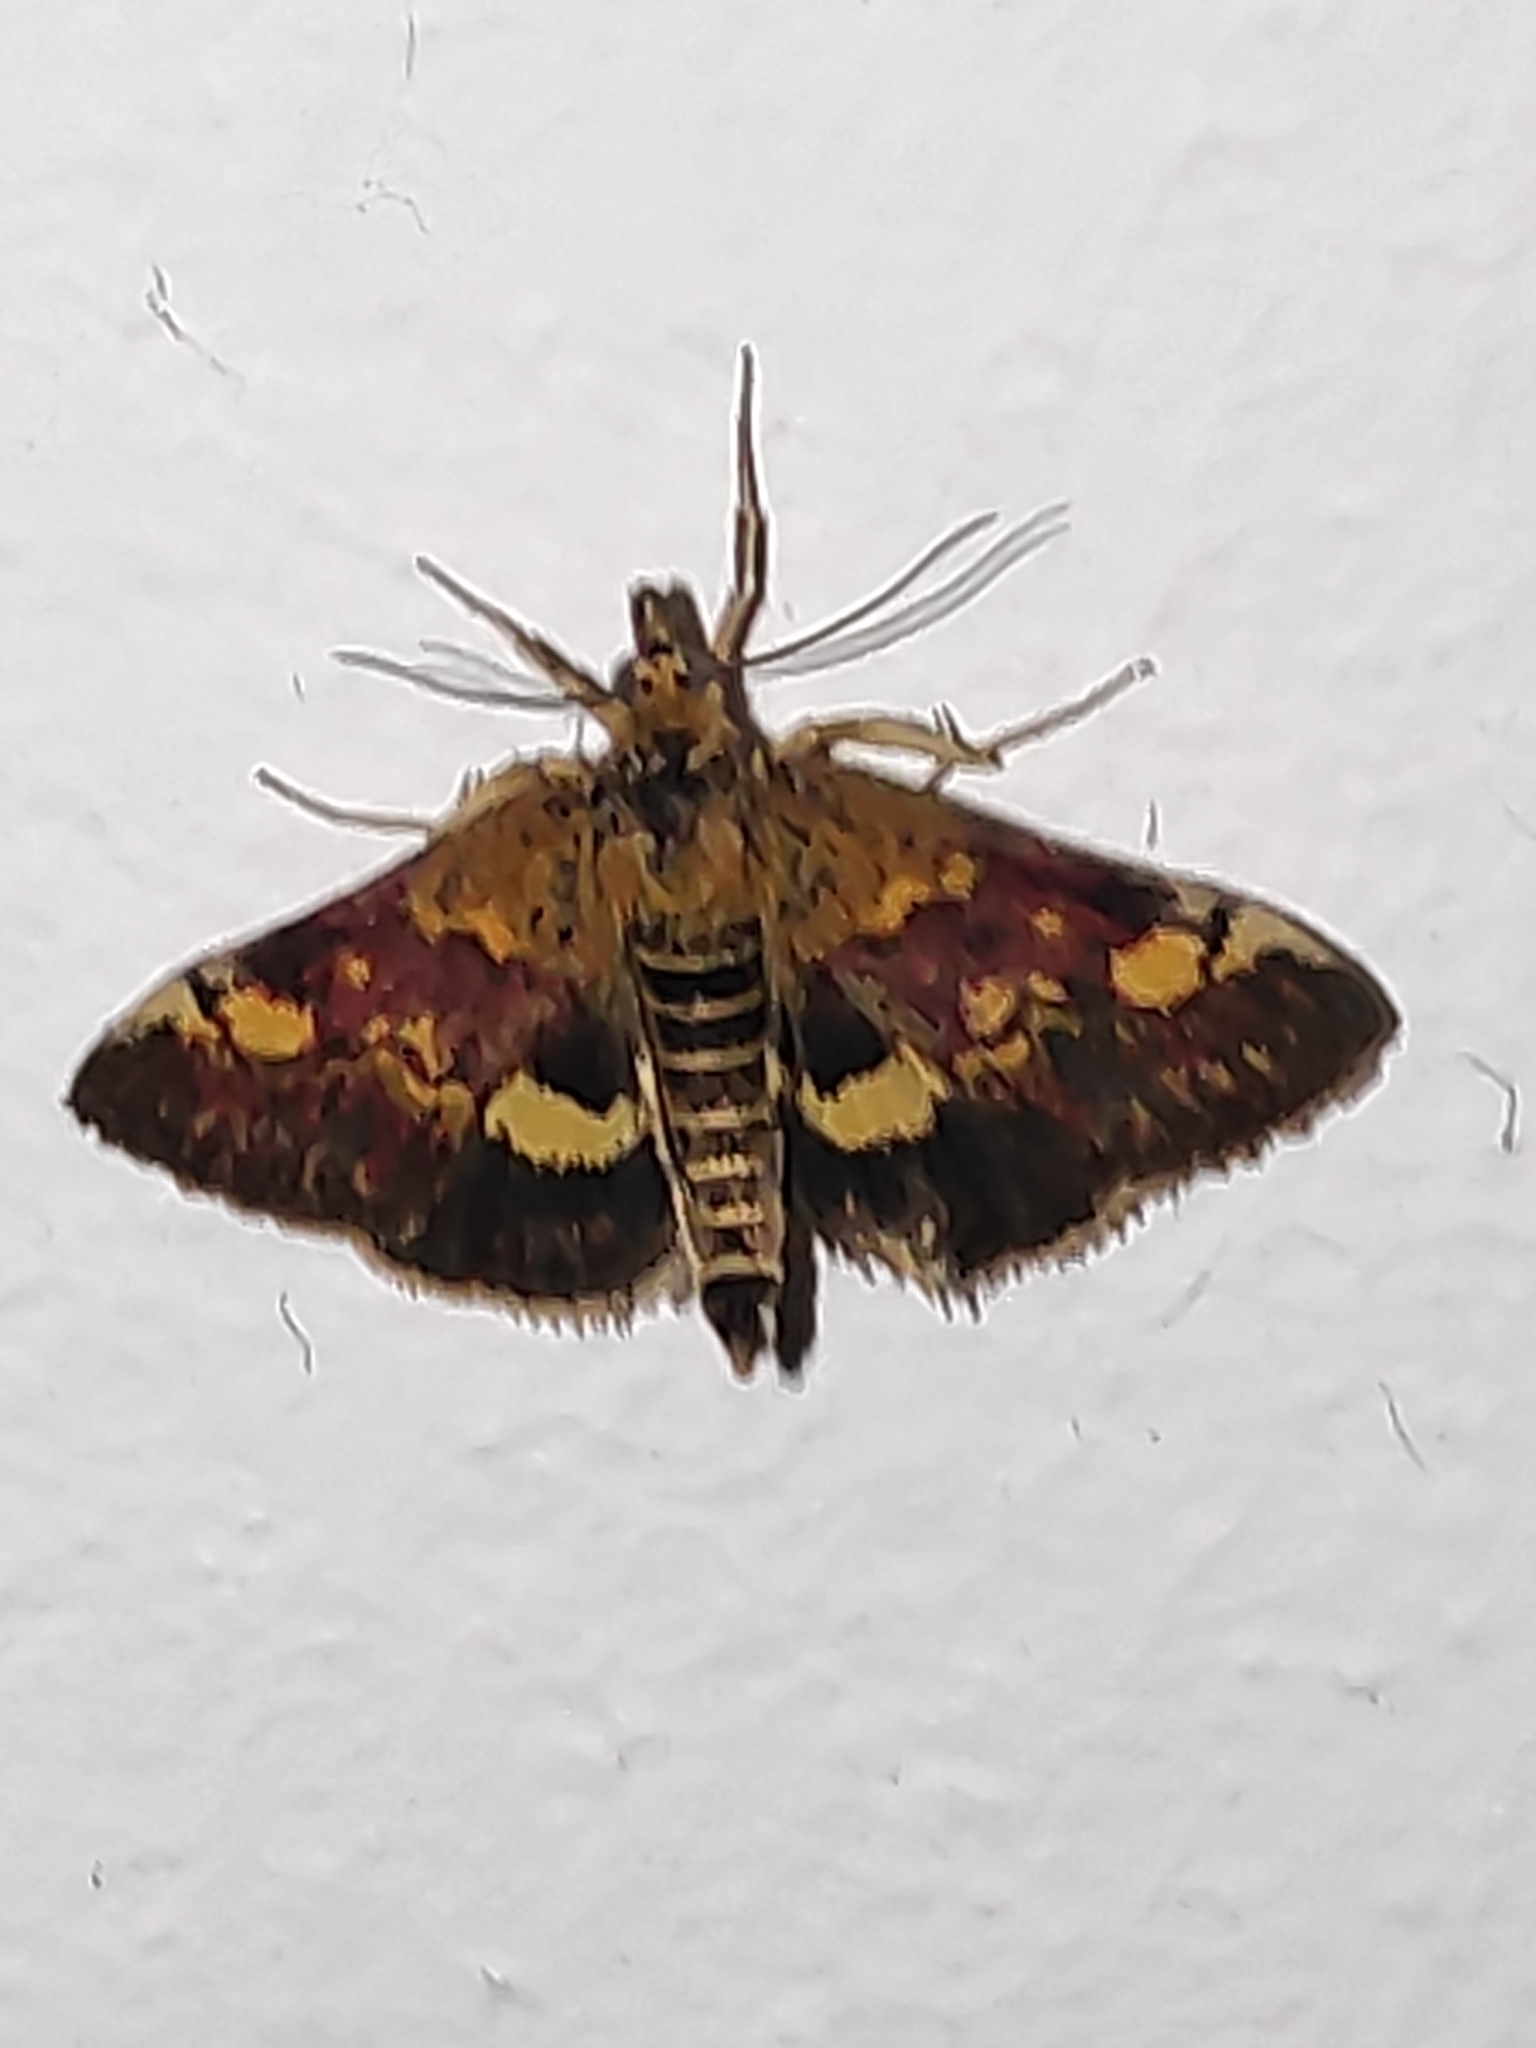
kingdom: Animalia
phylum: Arthropoda
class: Insecta
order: Lepidoptera
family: Crambidae
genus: Pyrausta
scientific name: Pyrausta aurata
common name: Small purple & gold
